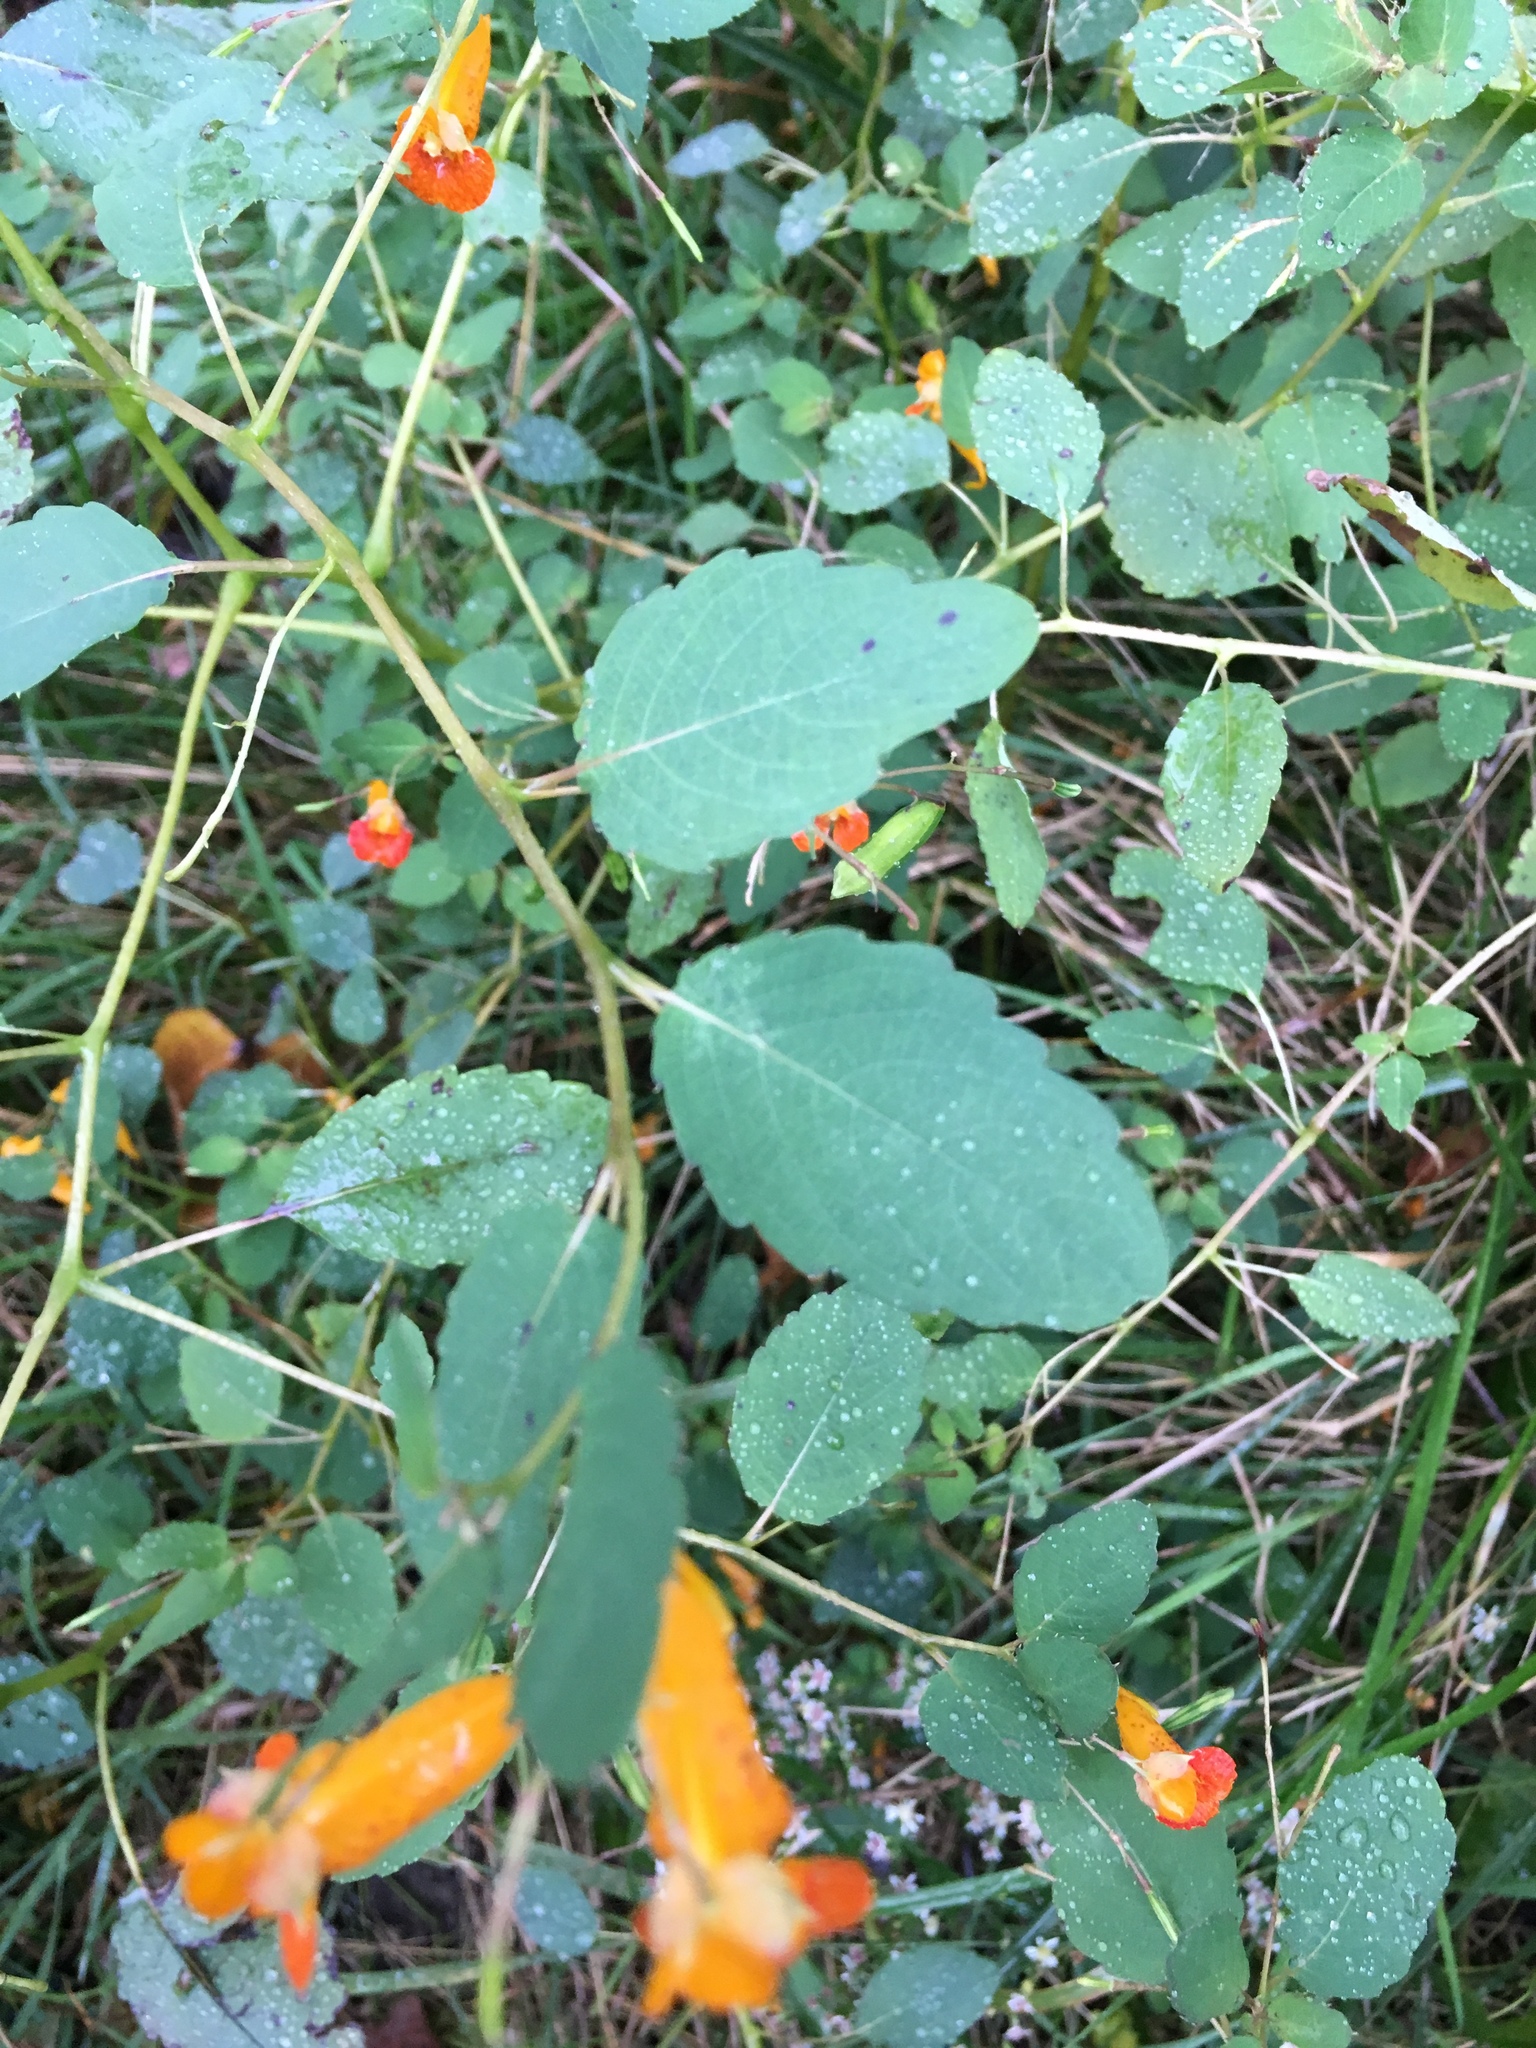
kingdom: Plantae
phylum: Tracheophyta
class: Magnoliopsida
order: Ericales
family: Balsaminaceae
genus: Impatiens
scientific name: Impatiens capensis
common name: Orange balsam
